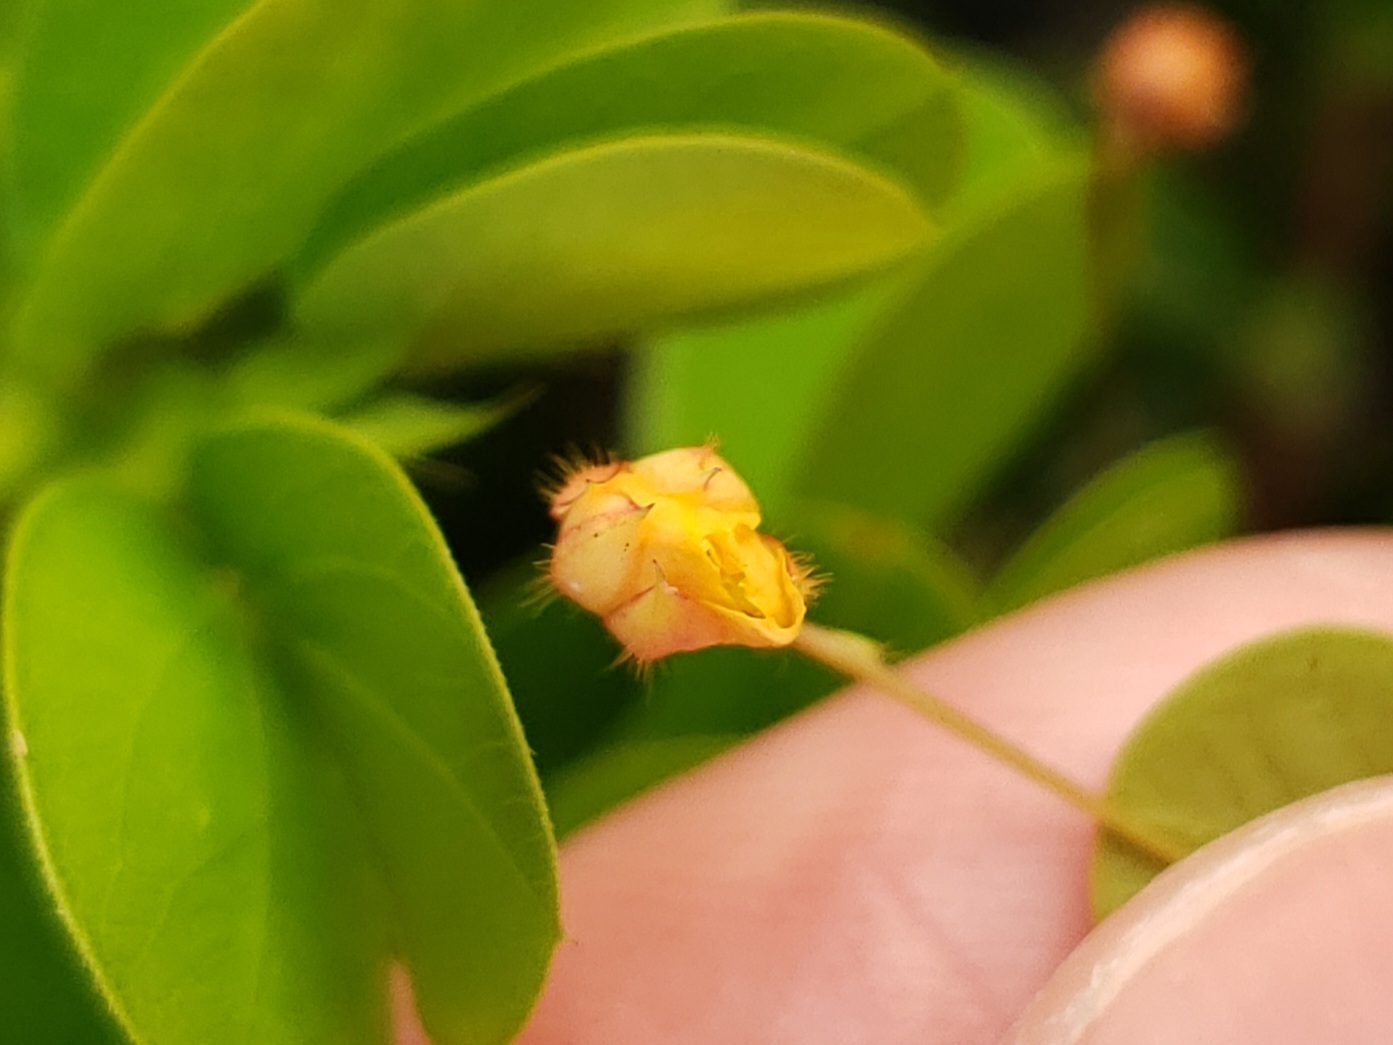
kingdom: Plantae
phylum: Tracheophyta
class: Magnoliopsida
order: Fabales
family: Fabaceae
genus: Chamaecrista
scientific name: Chamaecrista rotundifolia
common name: Round-leaf cassia
